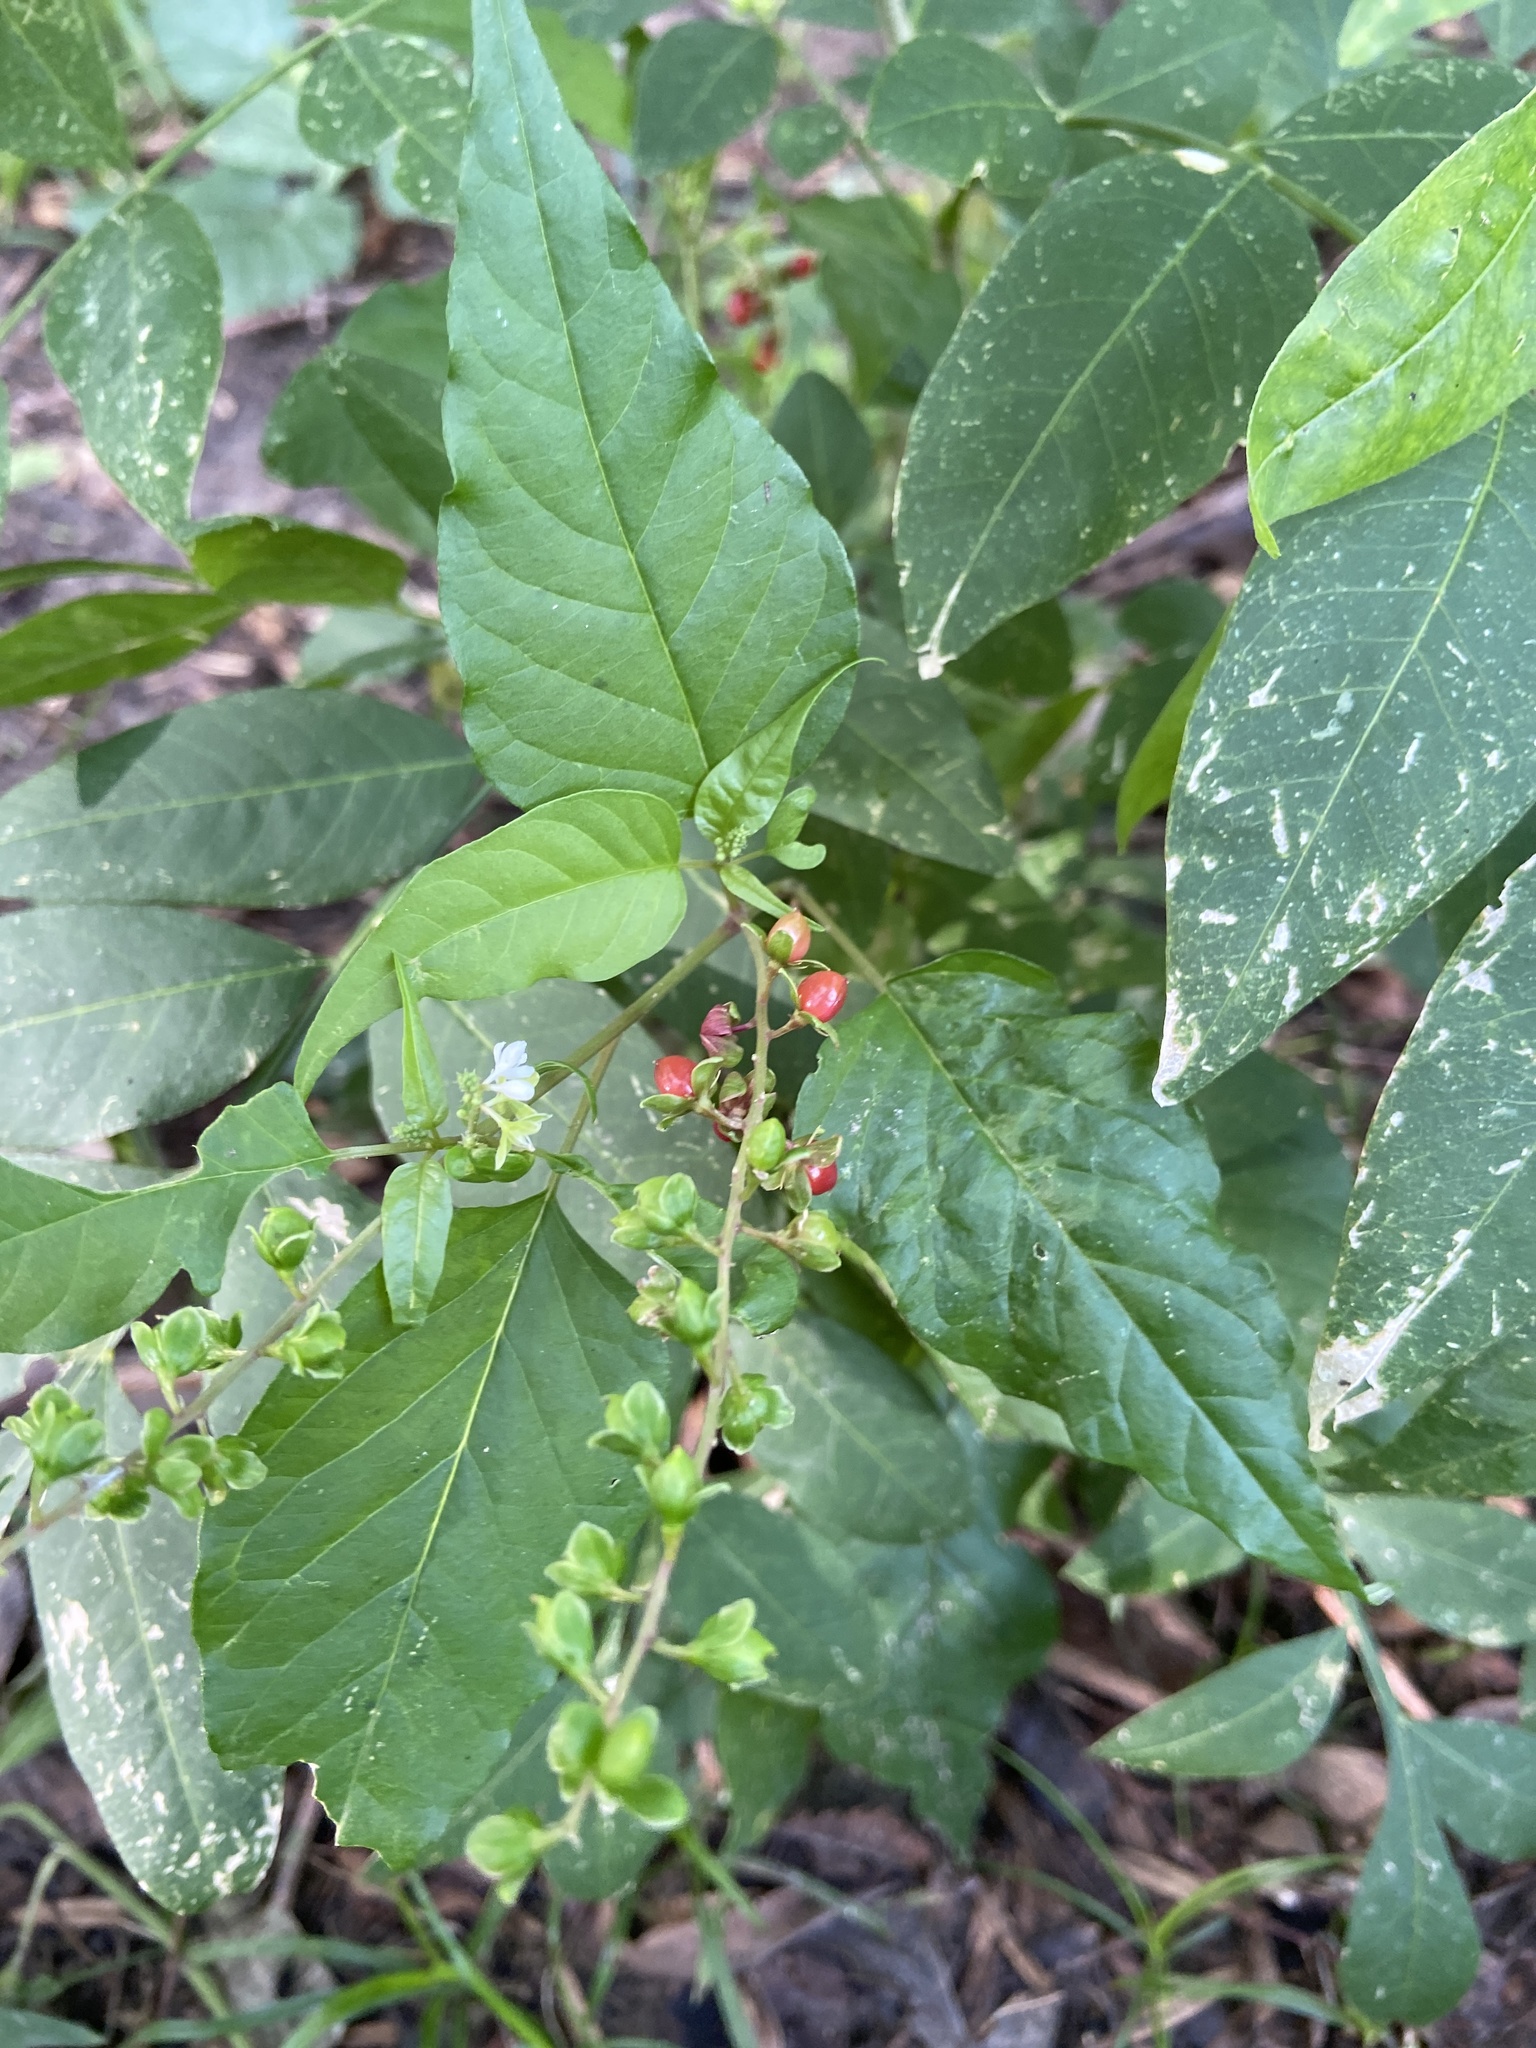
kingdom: Plantae
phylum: Tracheophyta
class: Magnoliopsida
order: Caryophyllales
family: Phytolaccaceae
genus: Rivina
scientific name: Rivina humilis
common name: Rougeplant
